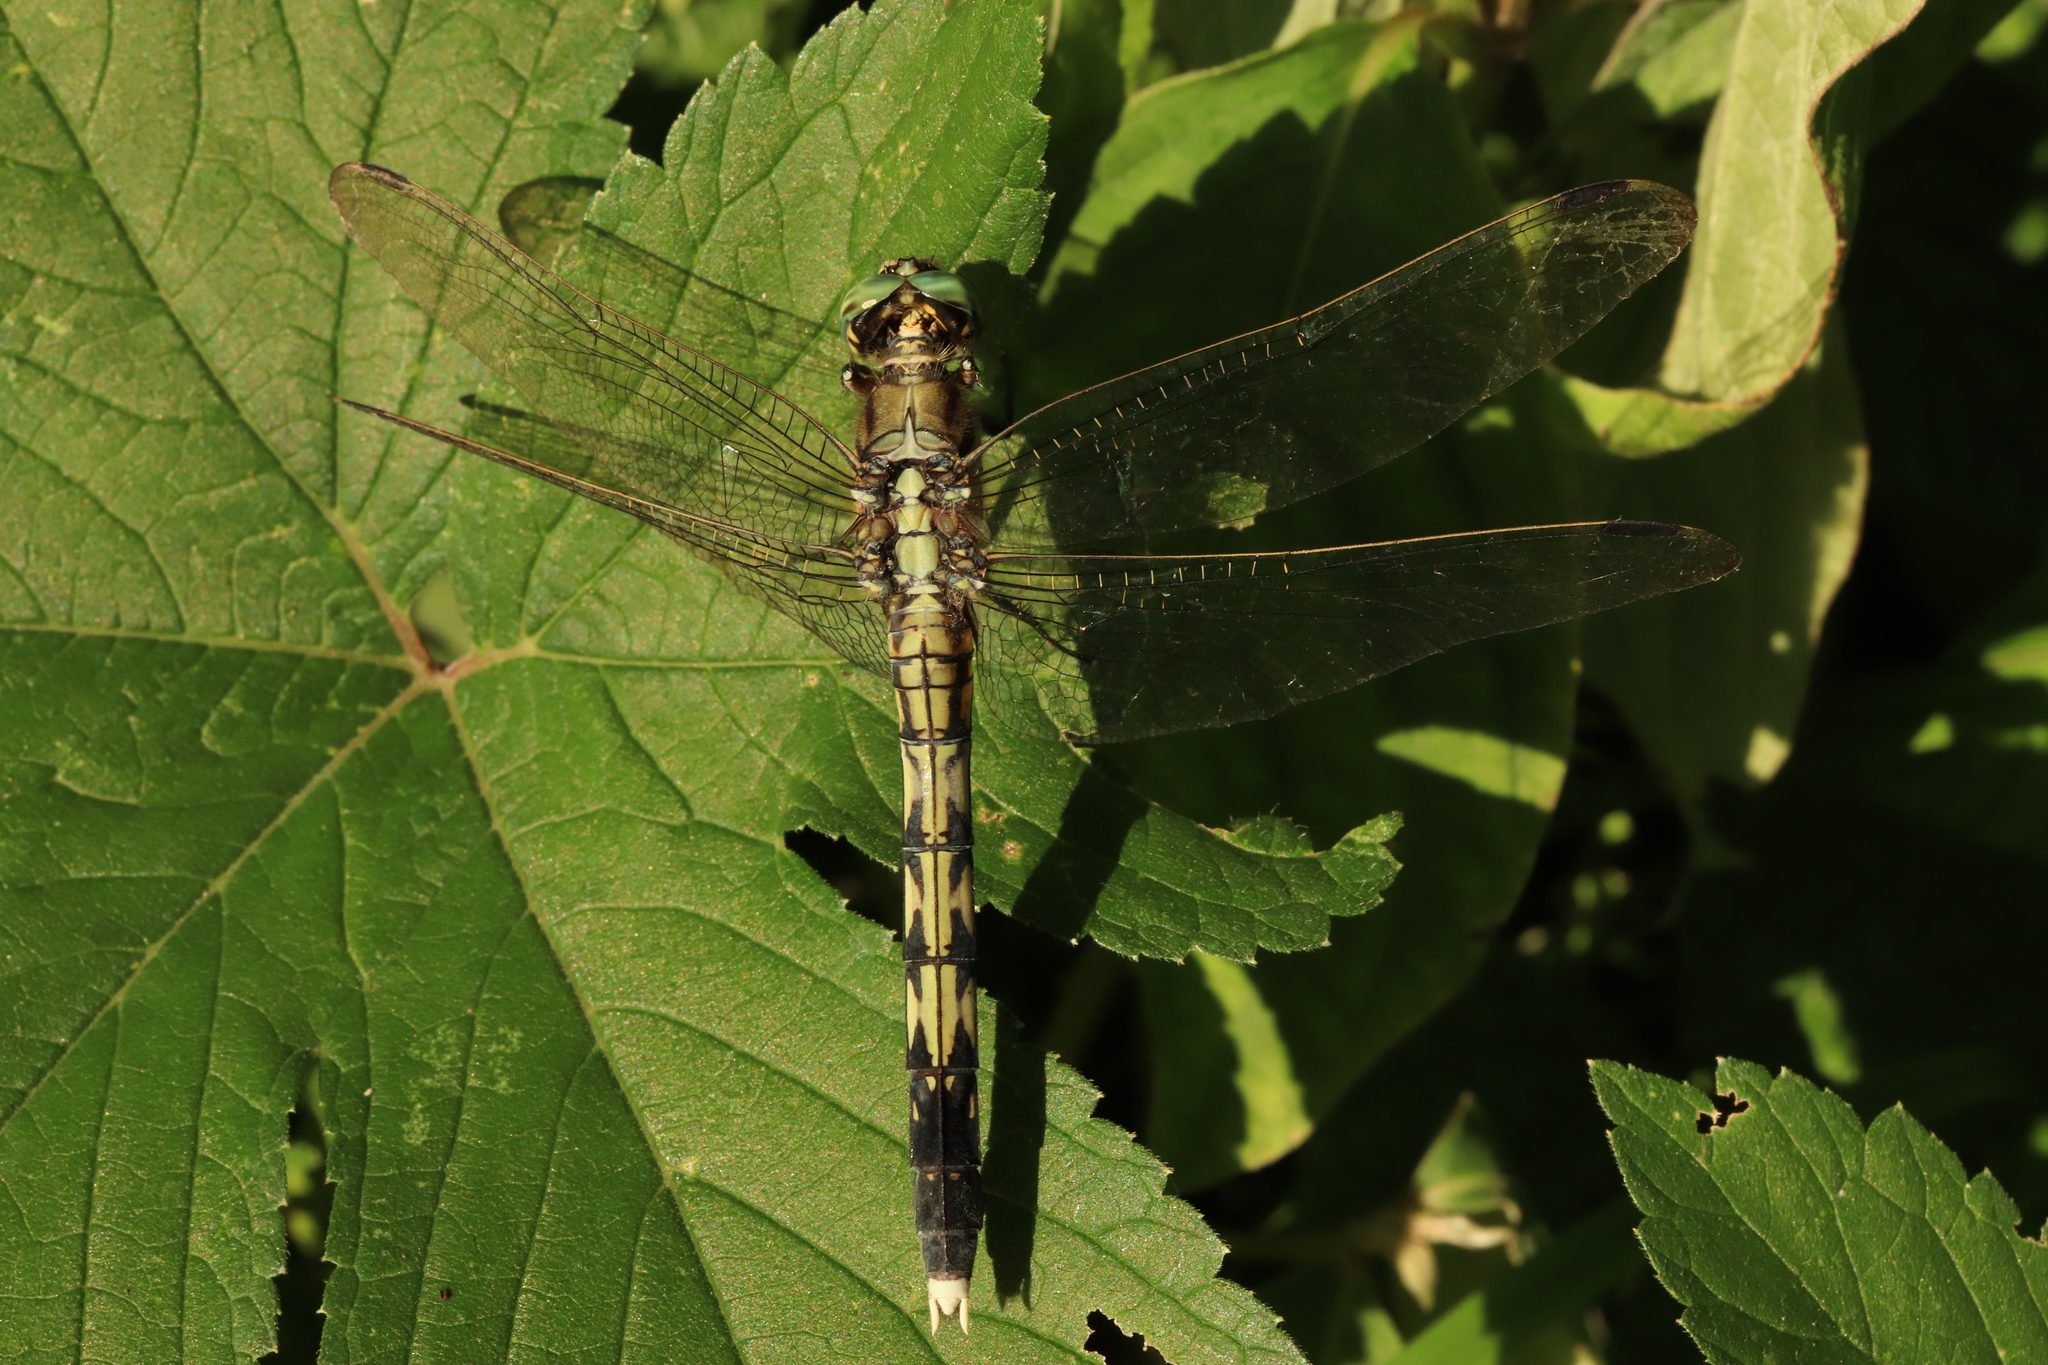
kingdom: Animalia
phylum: Arthropoda
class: Insecta
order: Odonata
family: Libellulidae
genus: Orthetrum
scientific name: Orthetrum albistylum
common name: White-tailed skimmer
